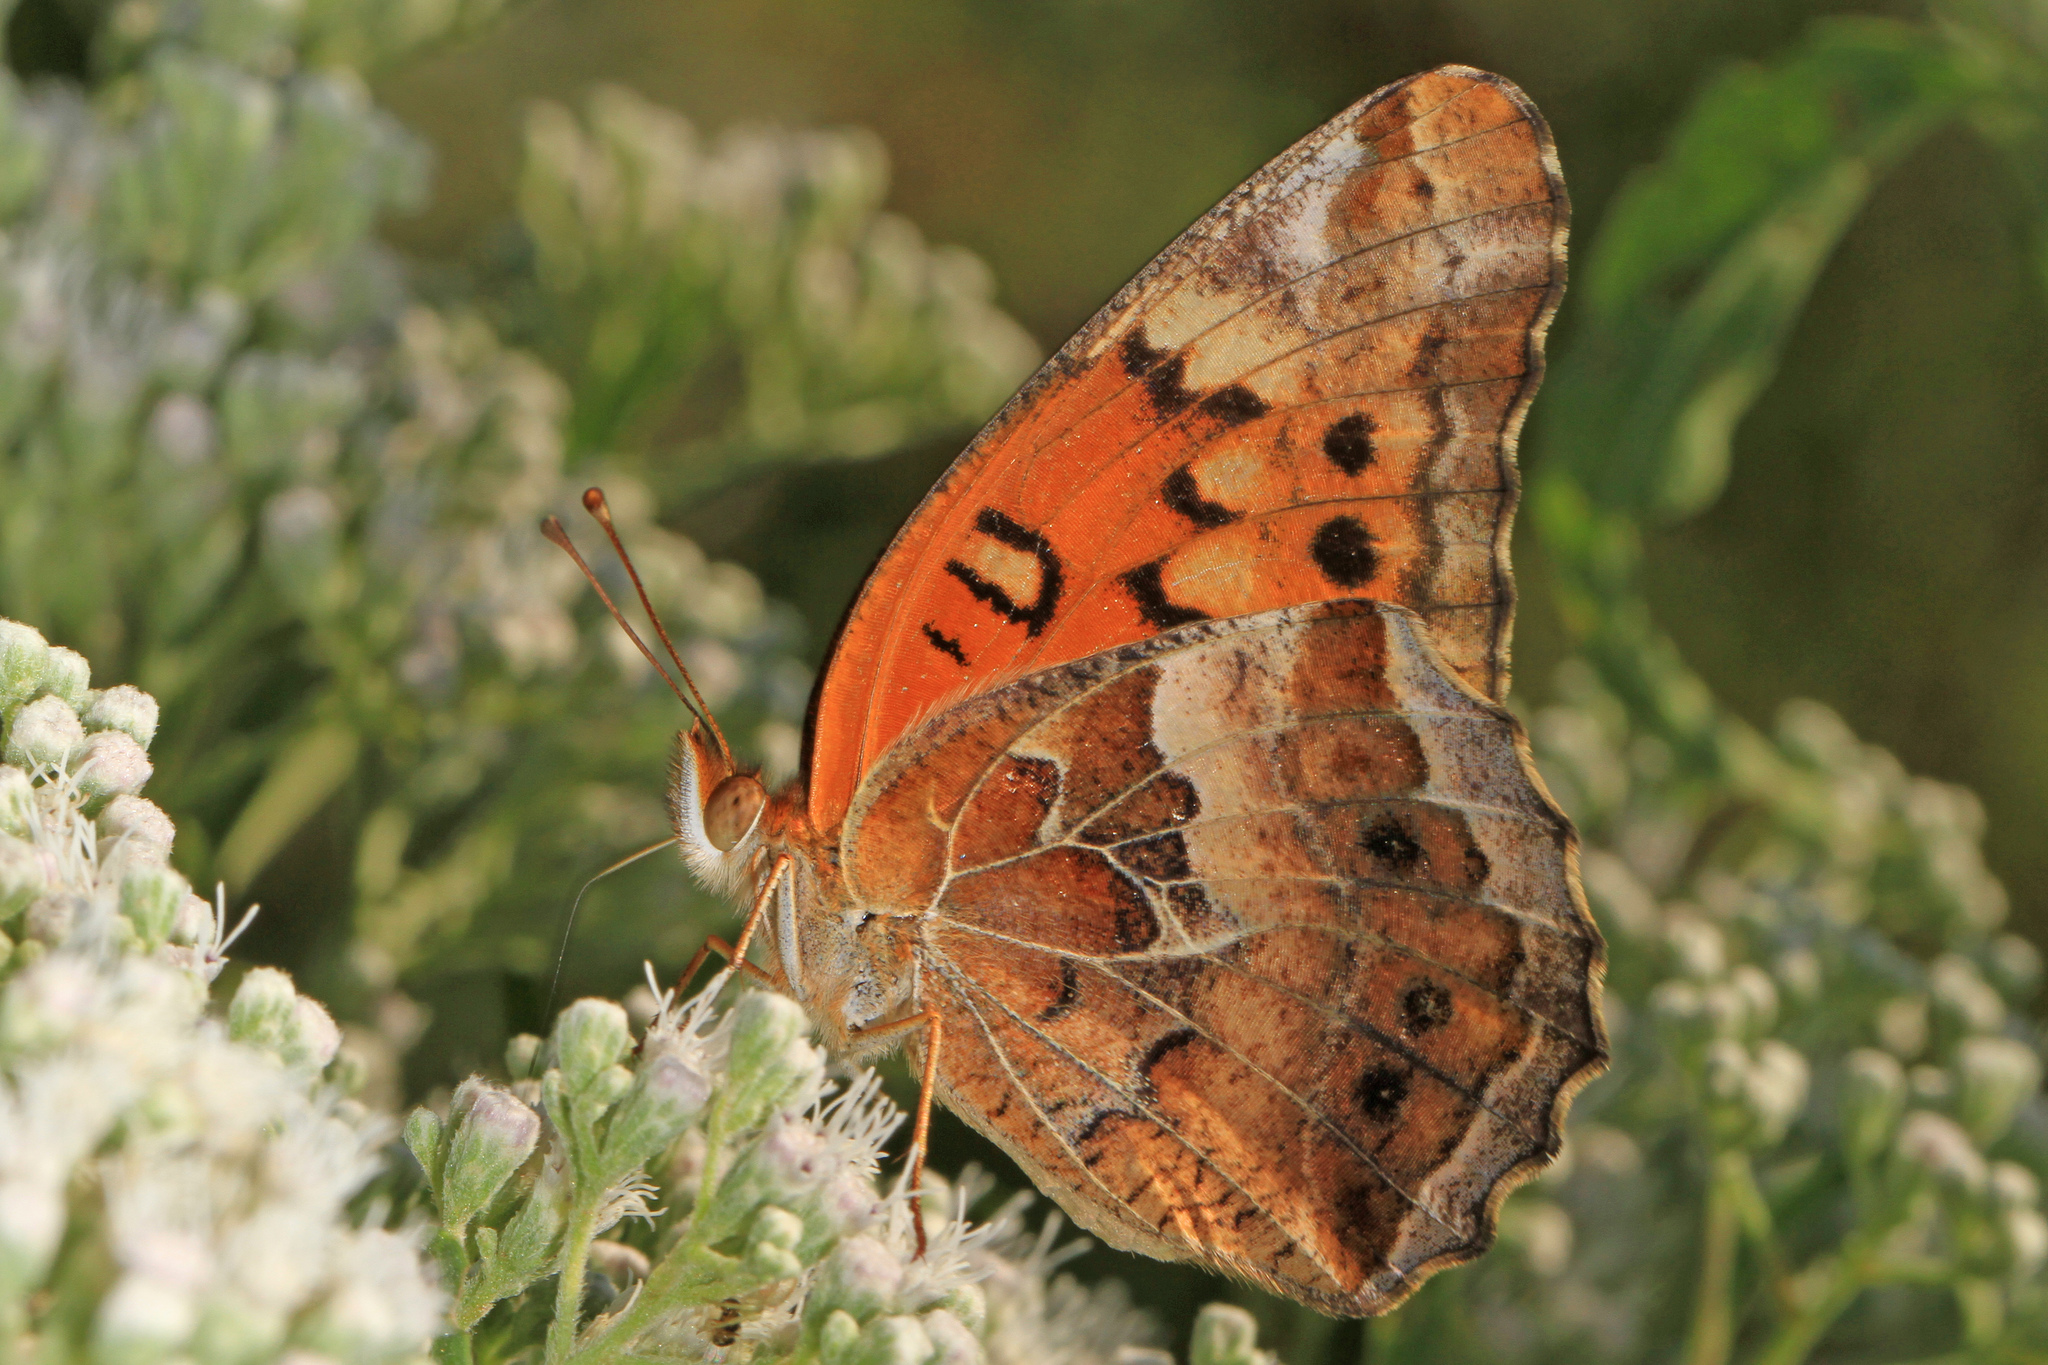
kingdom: Animalia
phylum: Arthropoda
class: Insecta
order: Lepidoptera
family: Nymphalidae
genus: Euptoieta
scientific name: Euptoieta claudia
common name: Variegated fritillary
